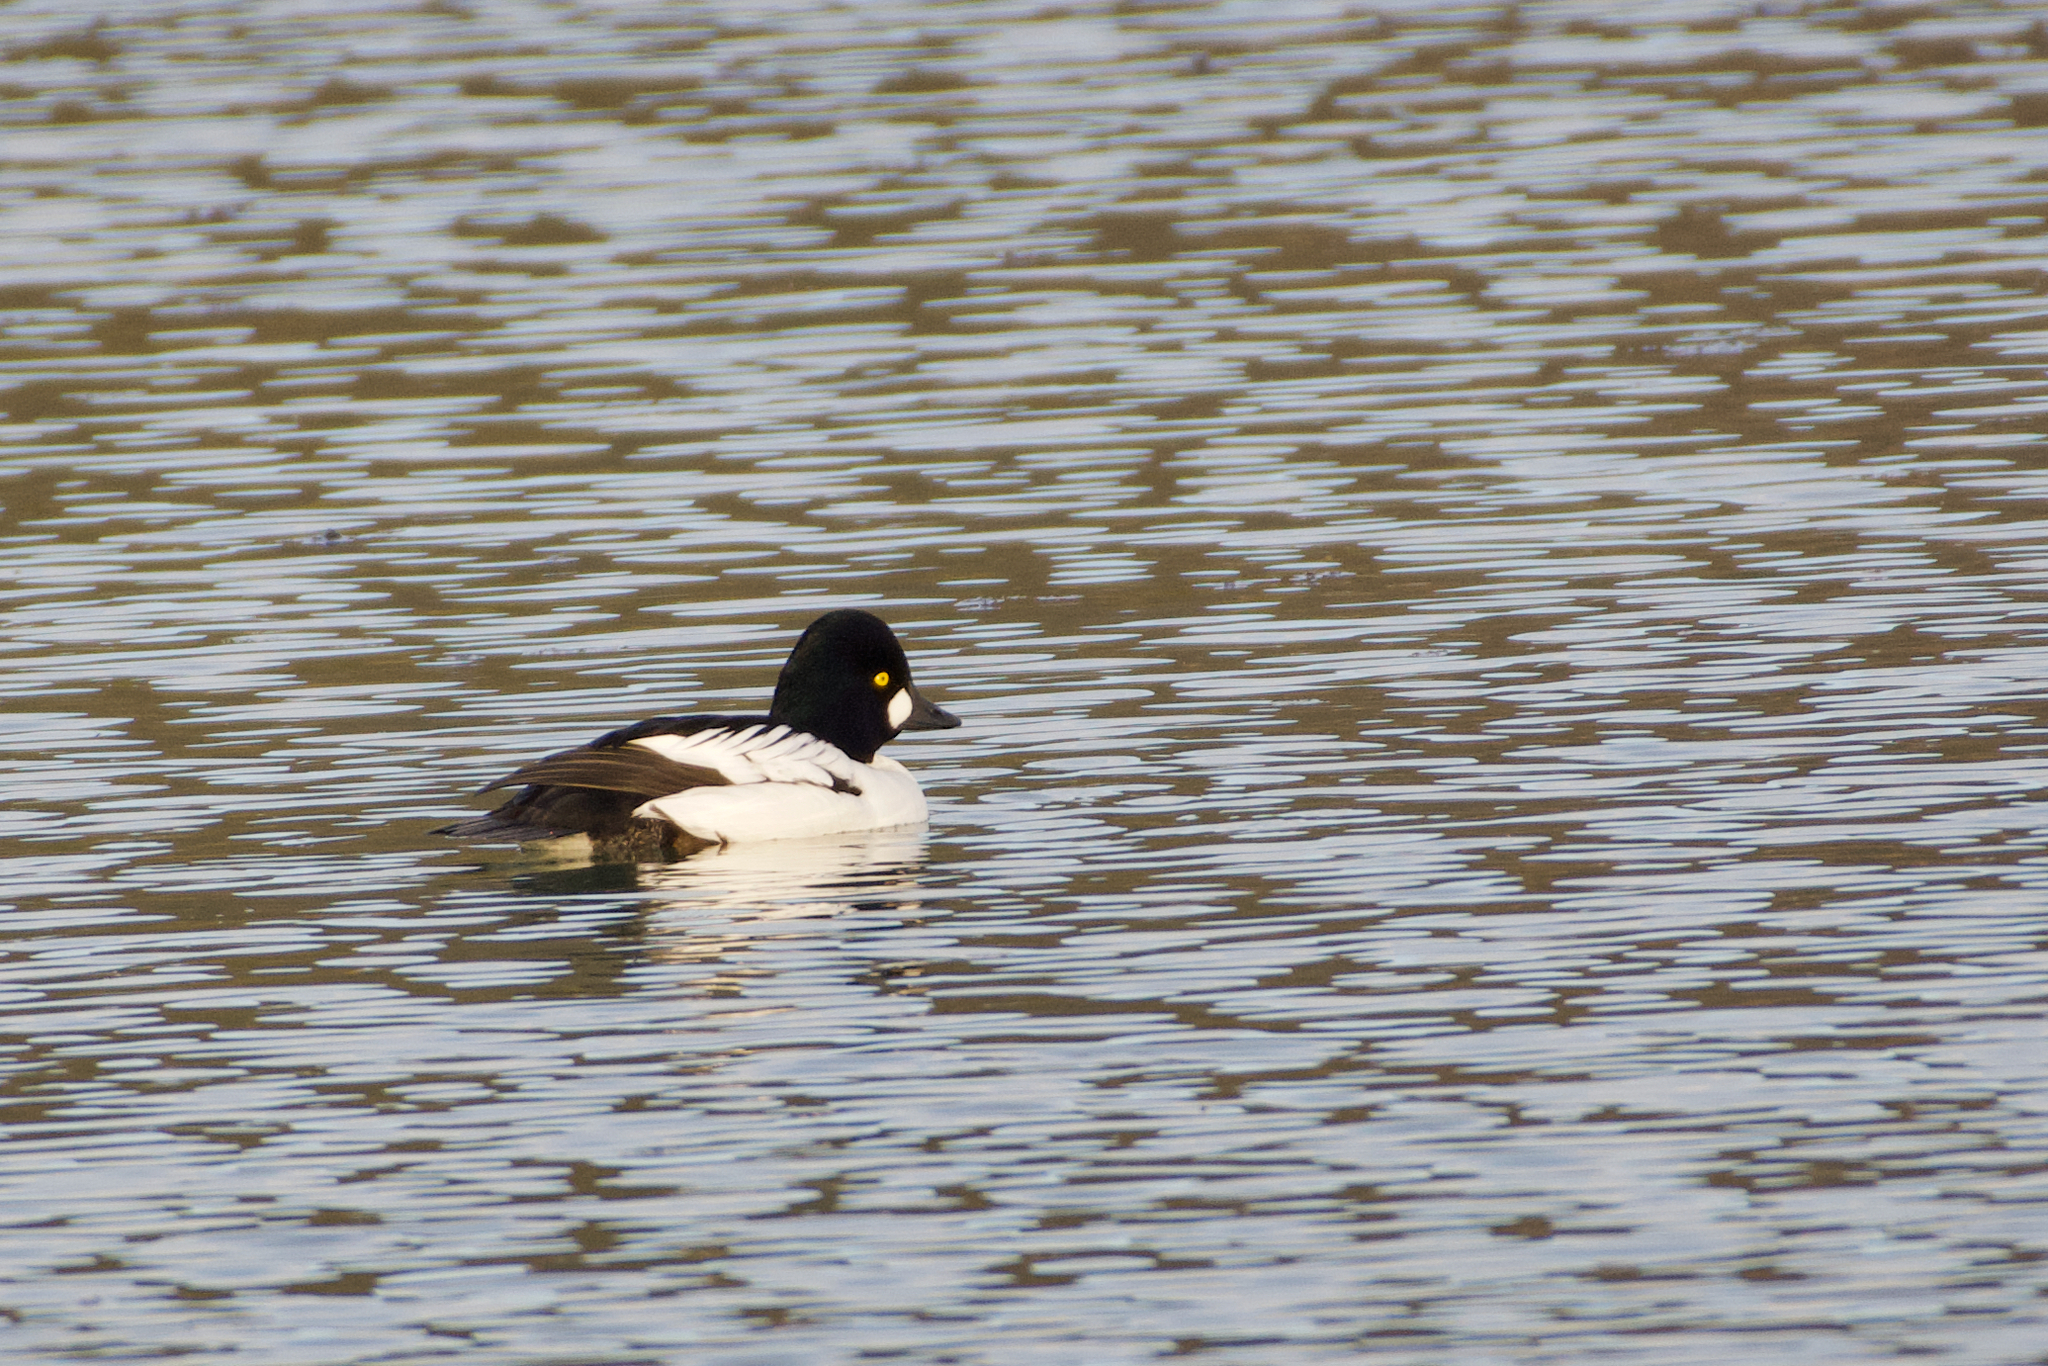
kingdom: Animalia
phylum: Chordata
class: Aves
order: Anseriformes
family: Anatidae
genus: Bucephala
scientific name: Bucephala clangula
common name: Common goldeneye
